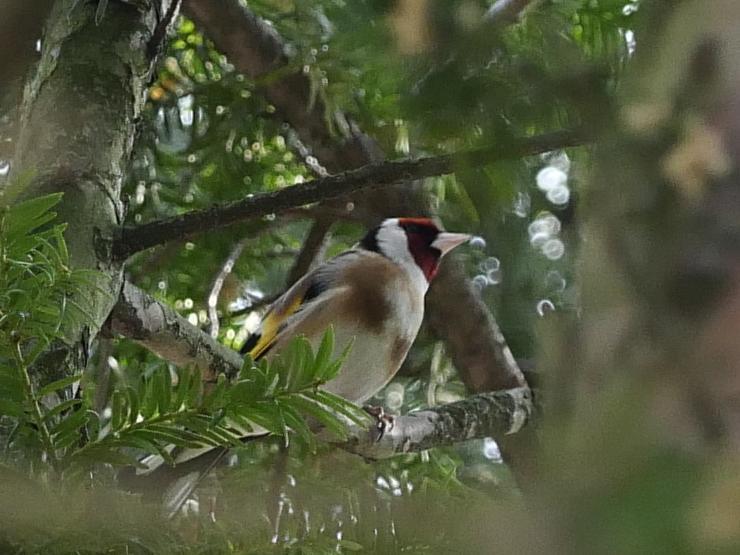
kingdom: Animalia
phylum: Chordata
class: Aves
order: Passeriformes
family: Fringillidae
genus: Carduelis
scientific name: Carduelis carduelis
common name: European goldfinch
